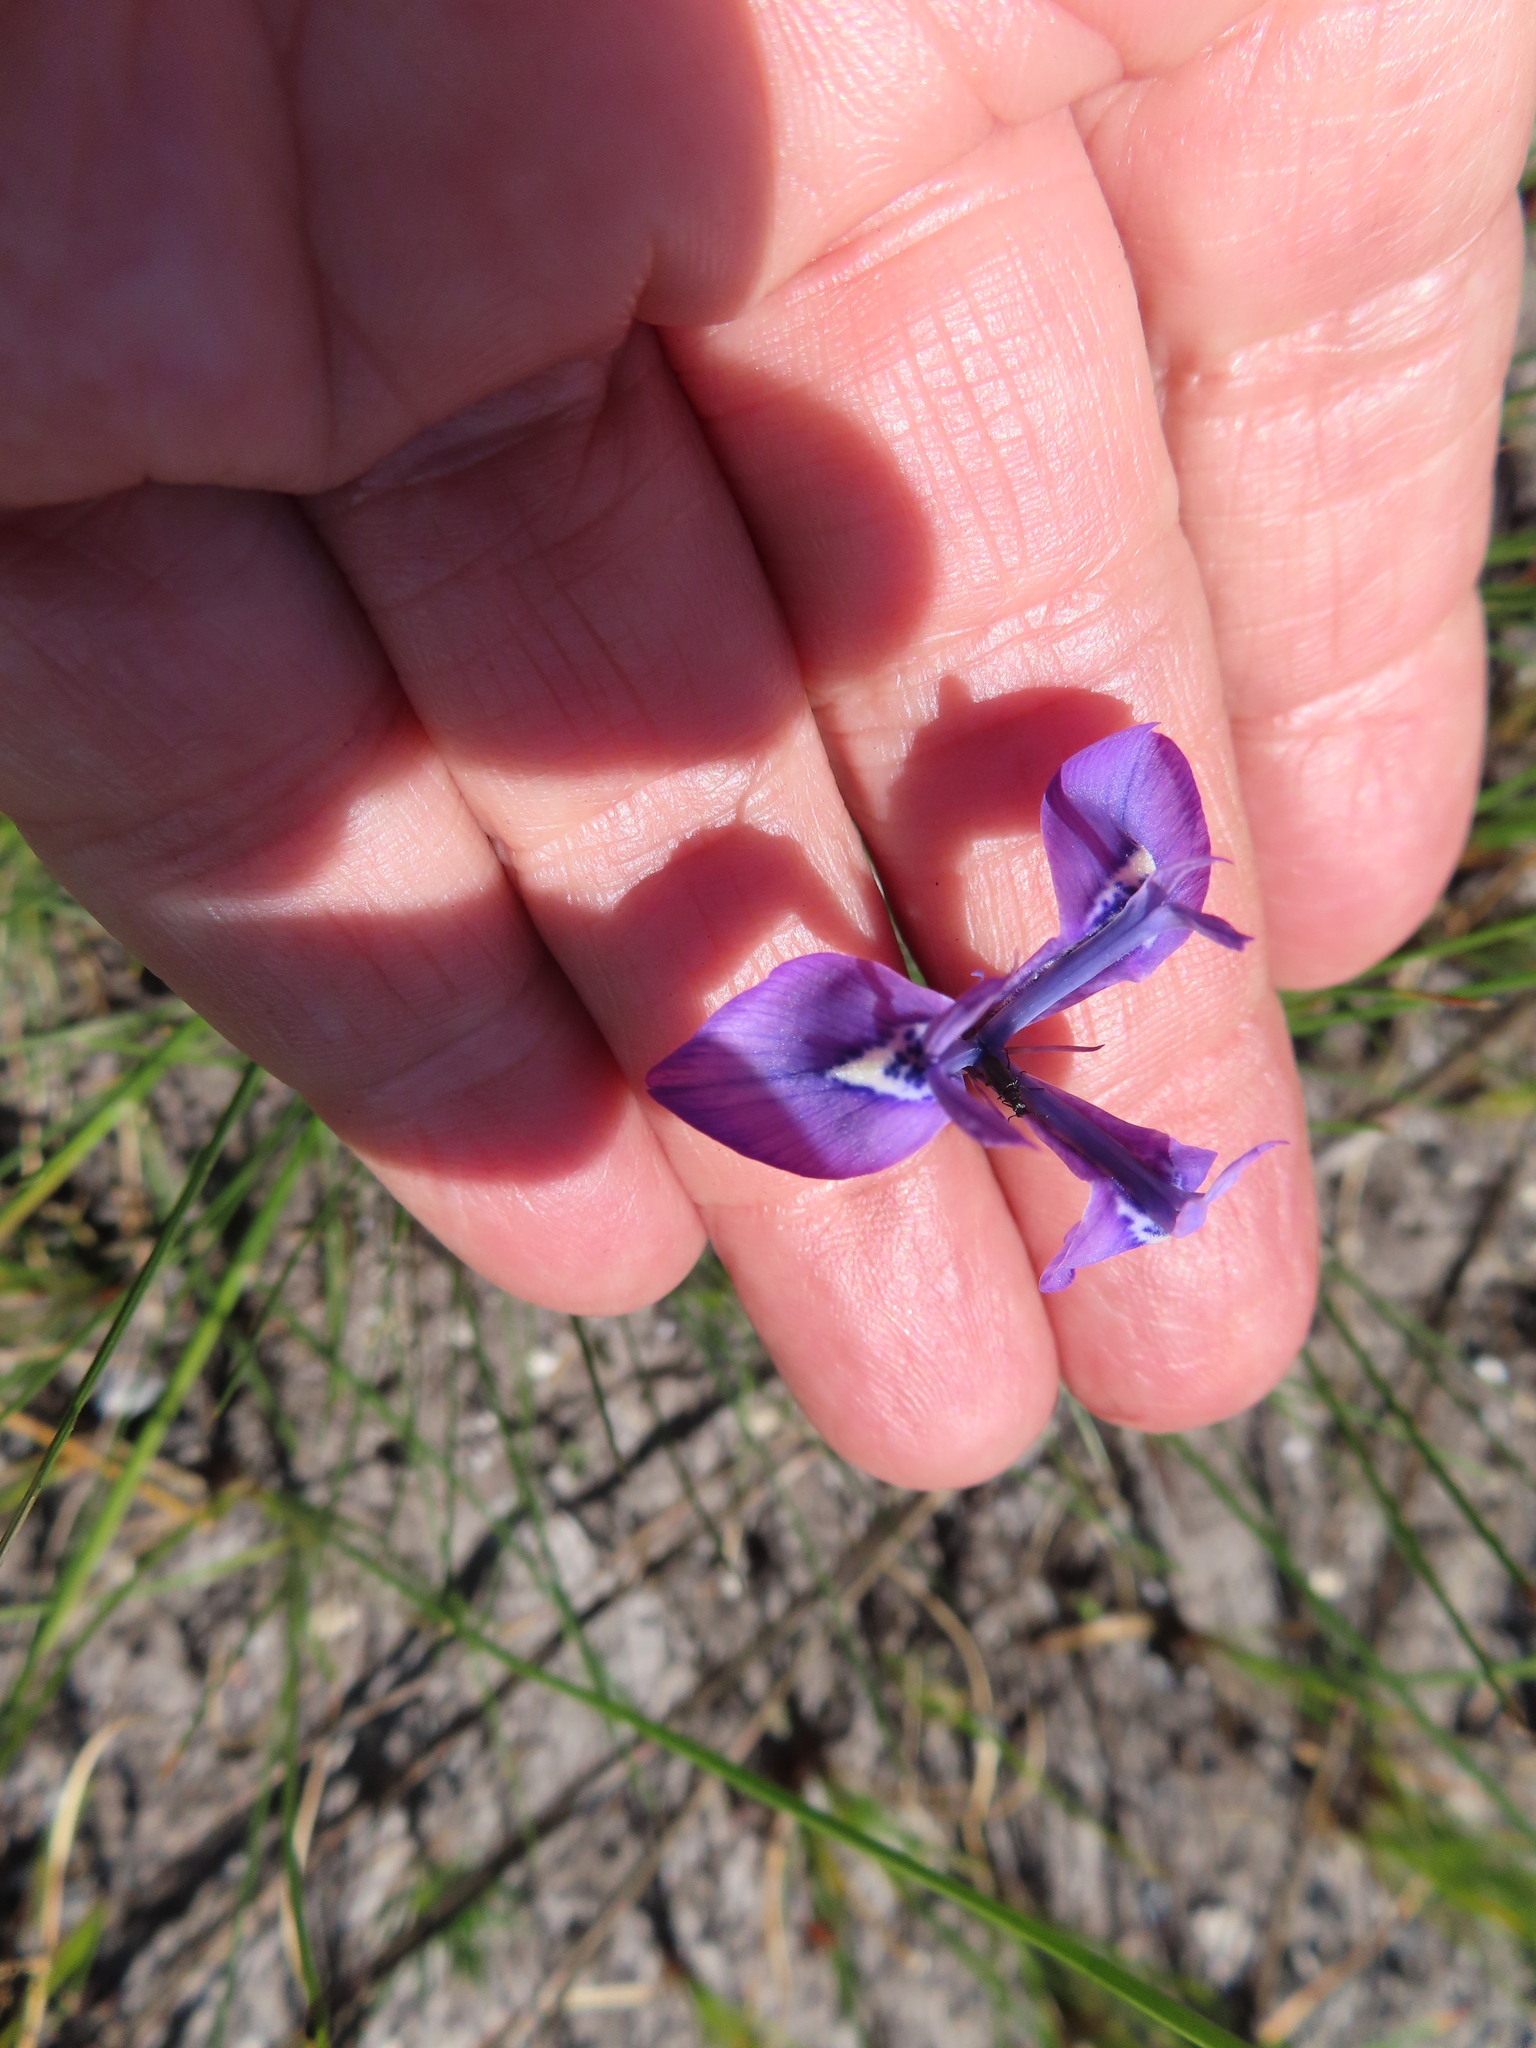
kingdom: Plantae
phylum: Tracheophyta
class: Liliopsida
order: Asparagales
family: Iridaceae
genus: Moraea
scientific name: Moraea tripetala
